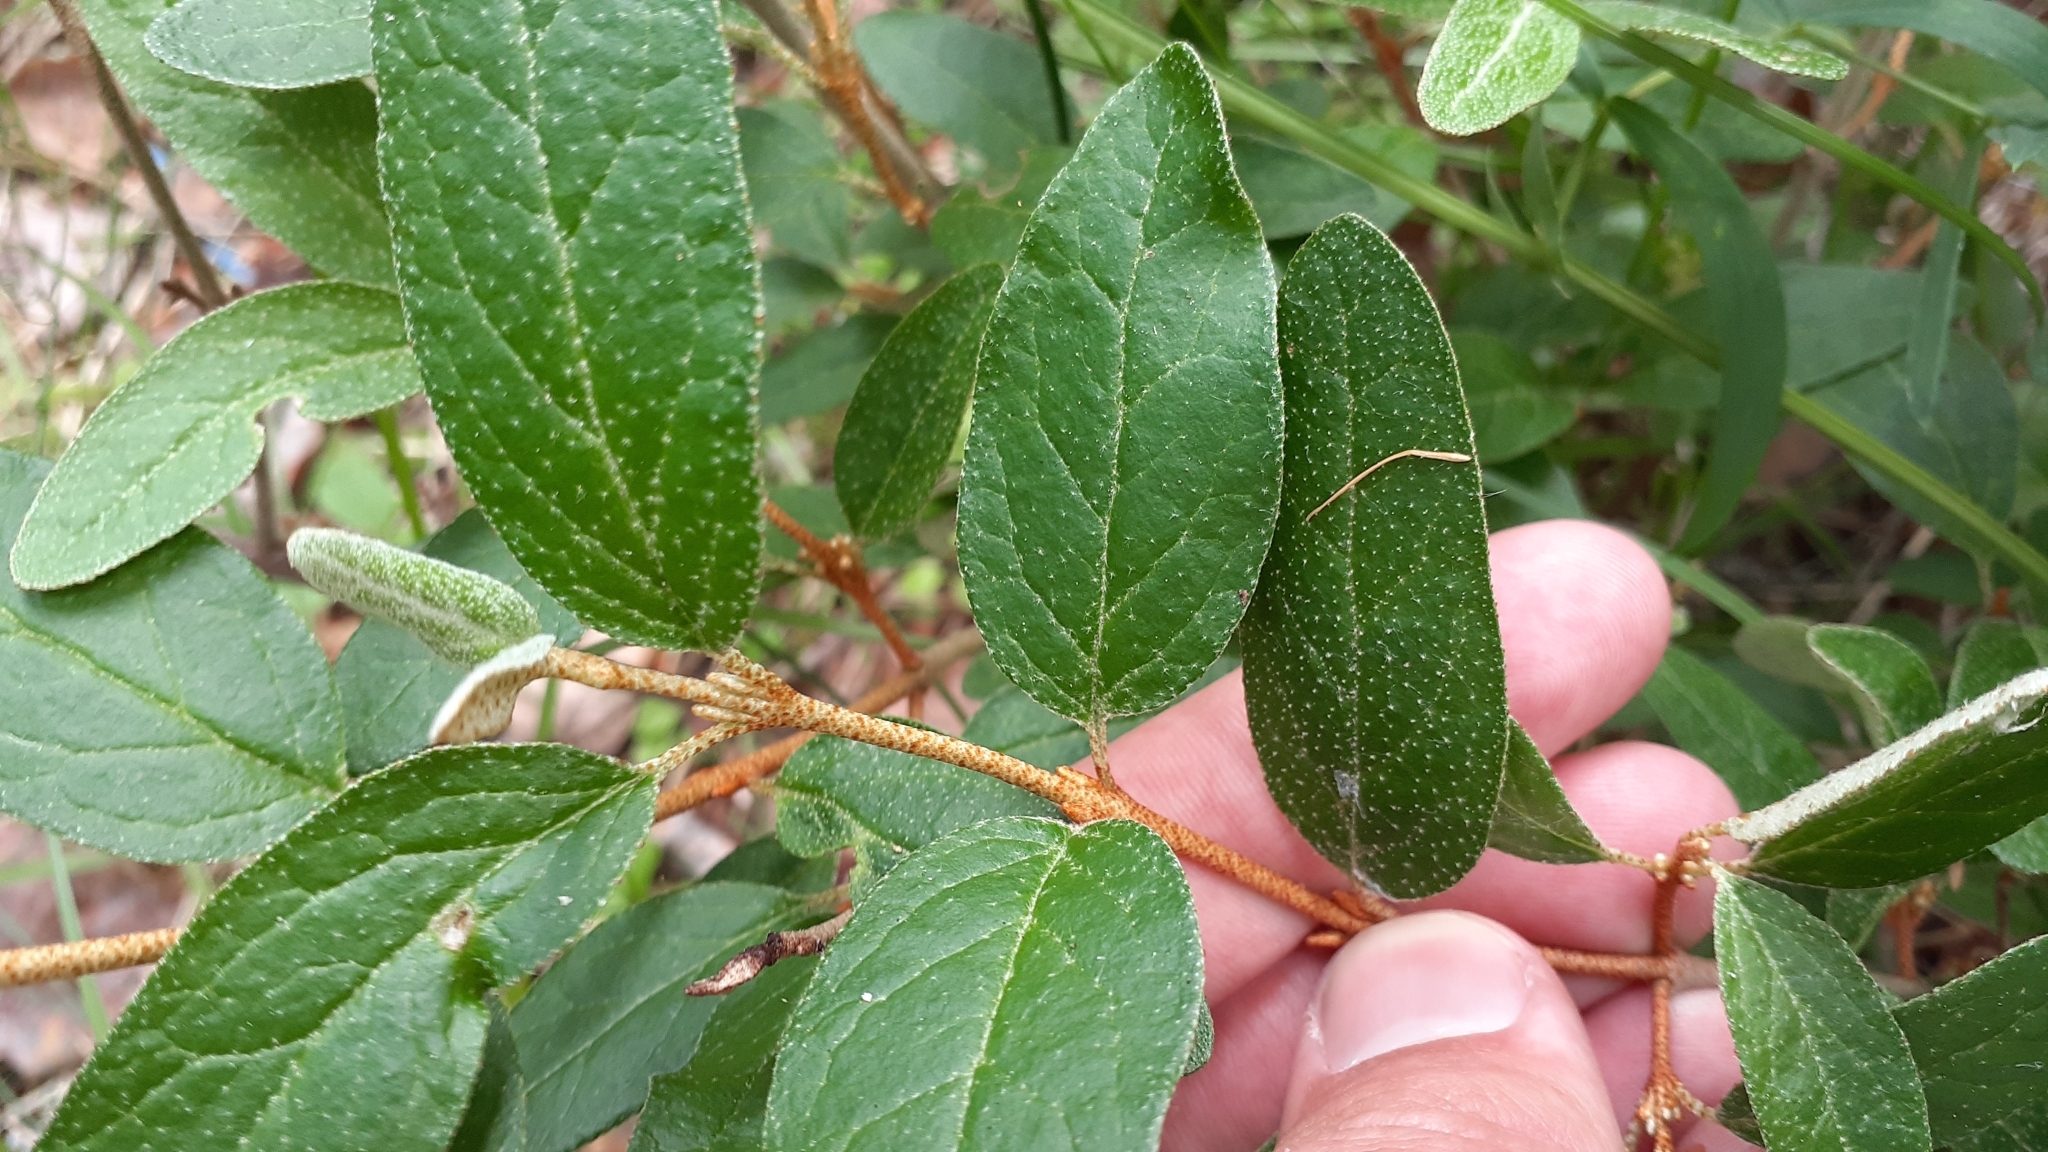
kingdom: Plantae
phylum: Tracheophyta
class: Magnoliopsida
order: Rosales
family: Elaeagnaceae
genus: Shepherdia
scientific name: Shepherdia canadensis
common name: Soapberry
